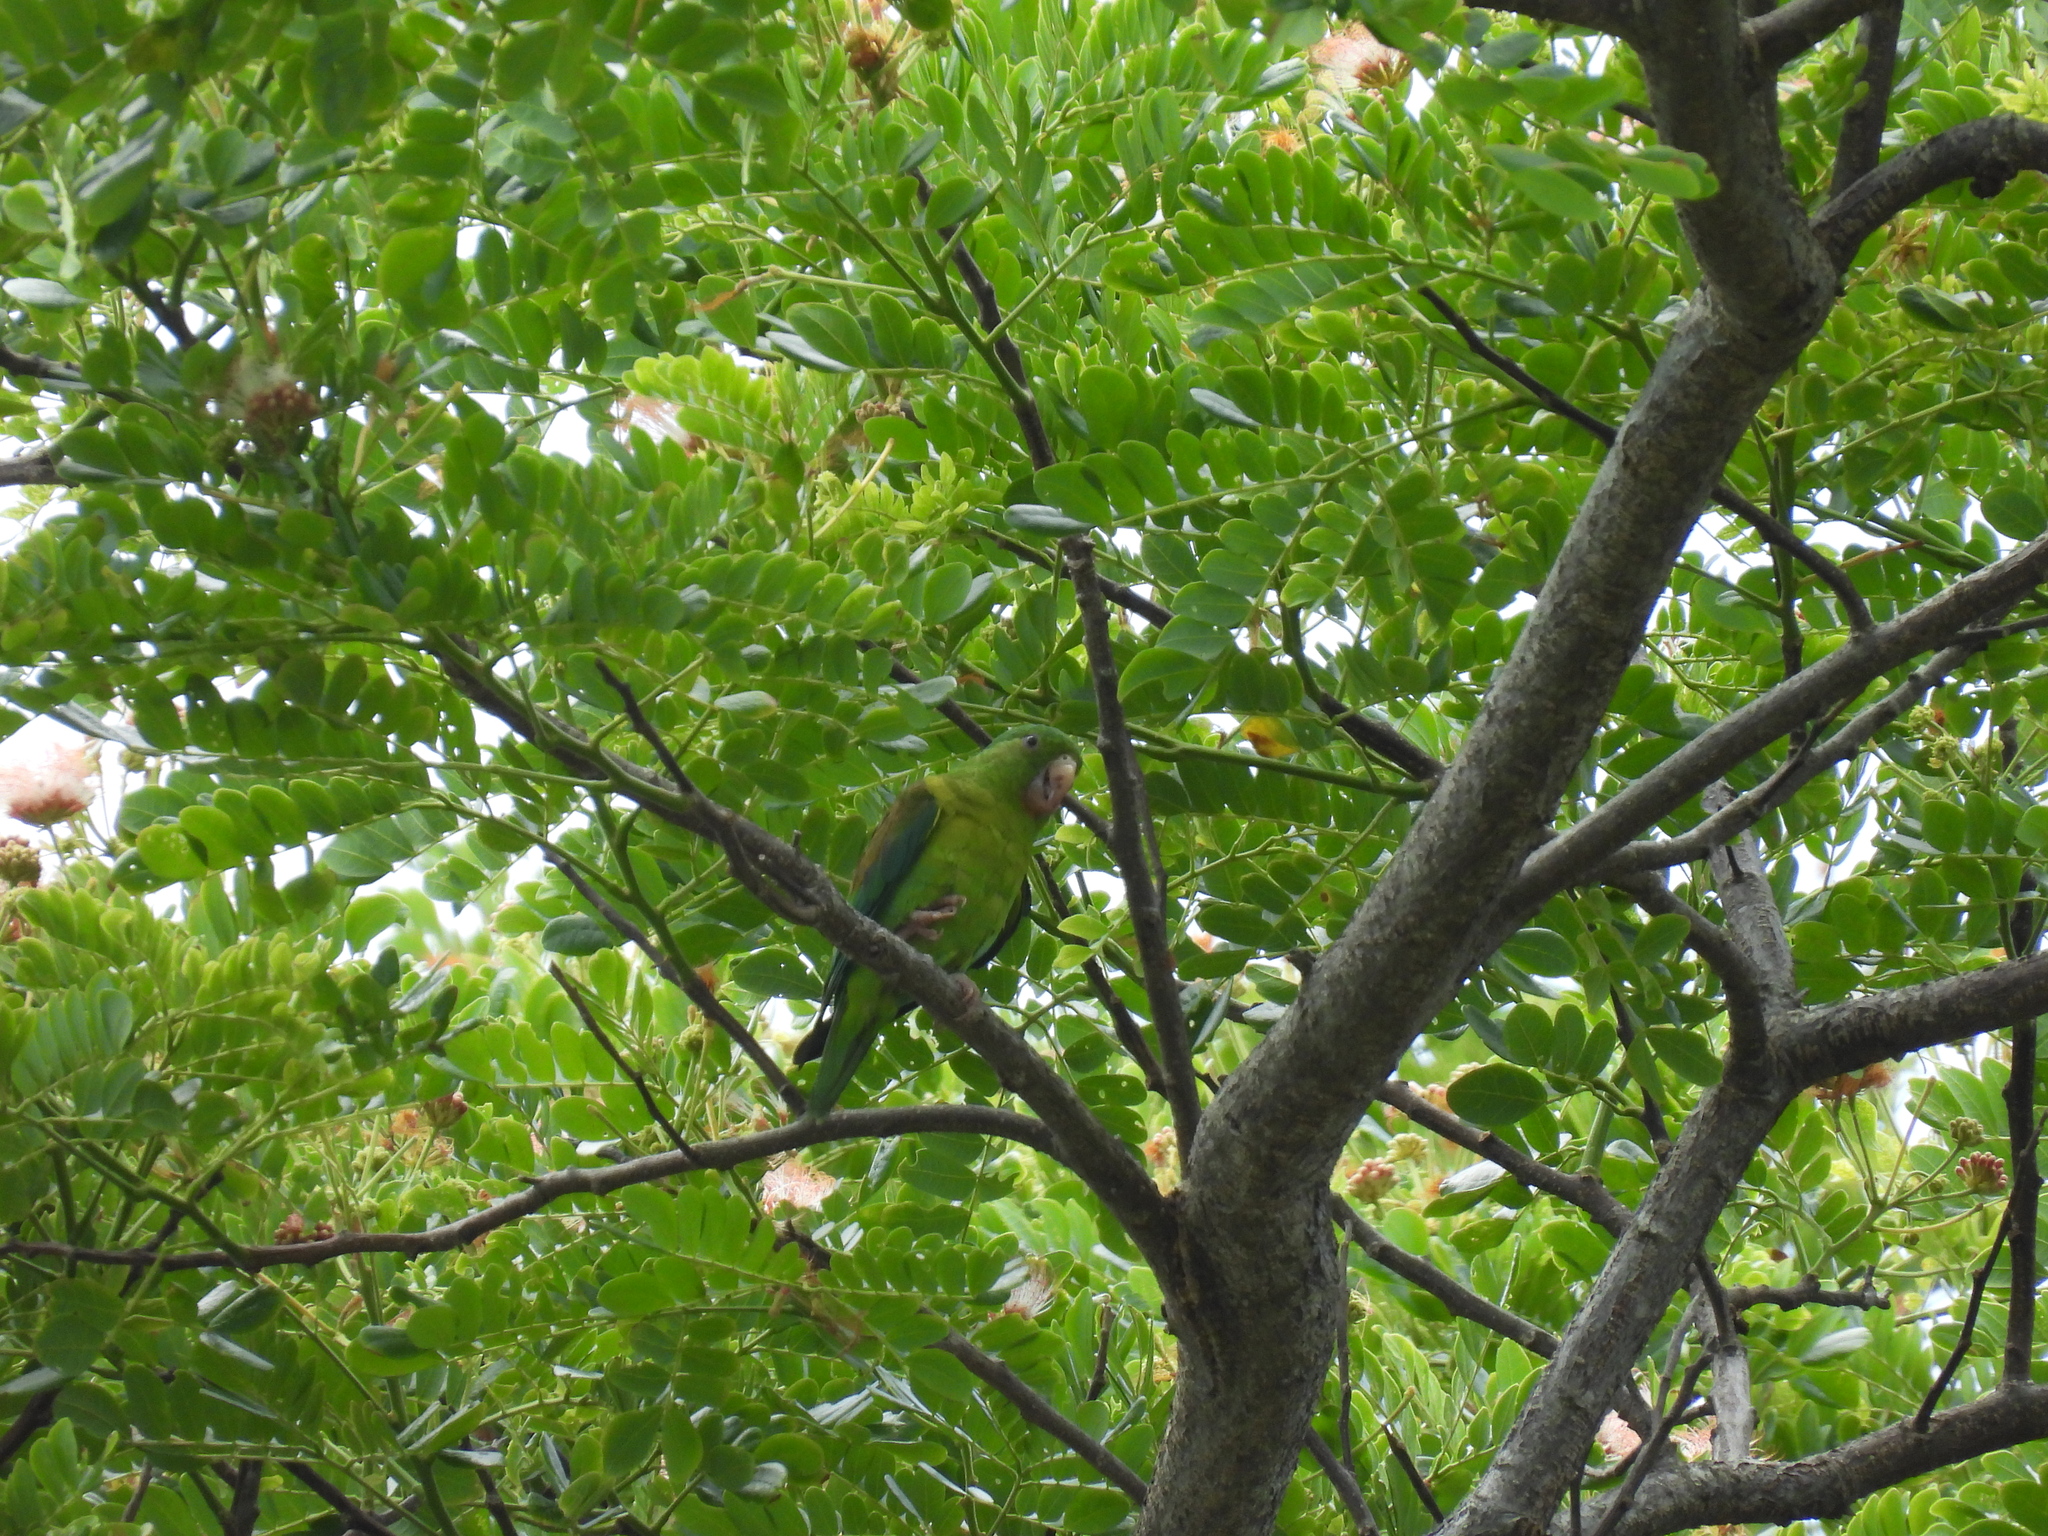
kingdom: Animalia
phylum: Chordata
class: Aves
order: Psittaciformes
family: Psittacidae
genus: Brotogeris
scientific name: Brotogeris jugularis
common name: Orange-chinned parakeet
